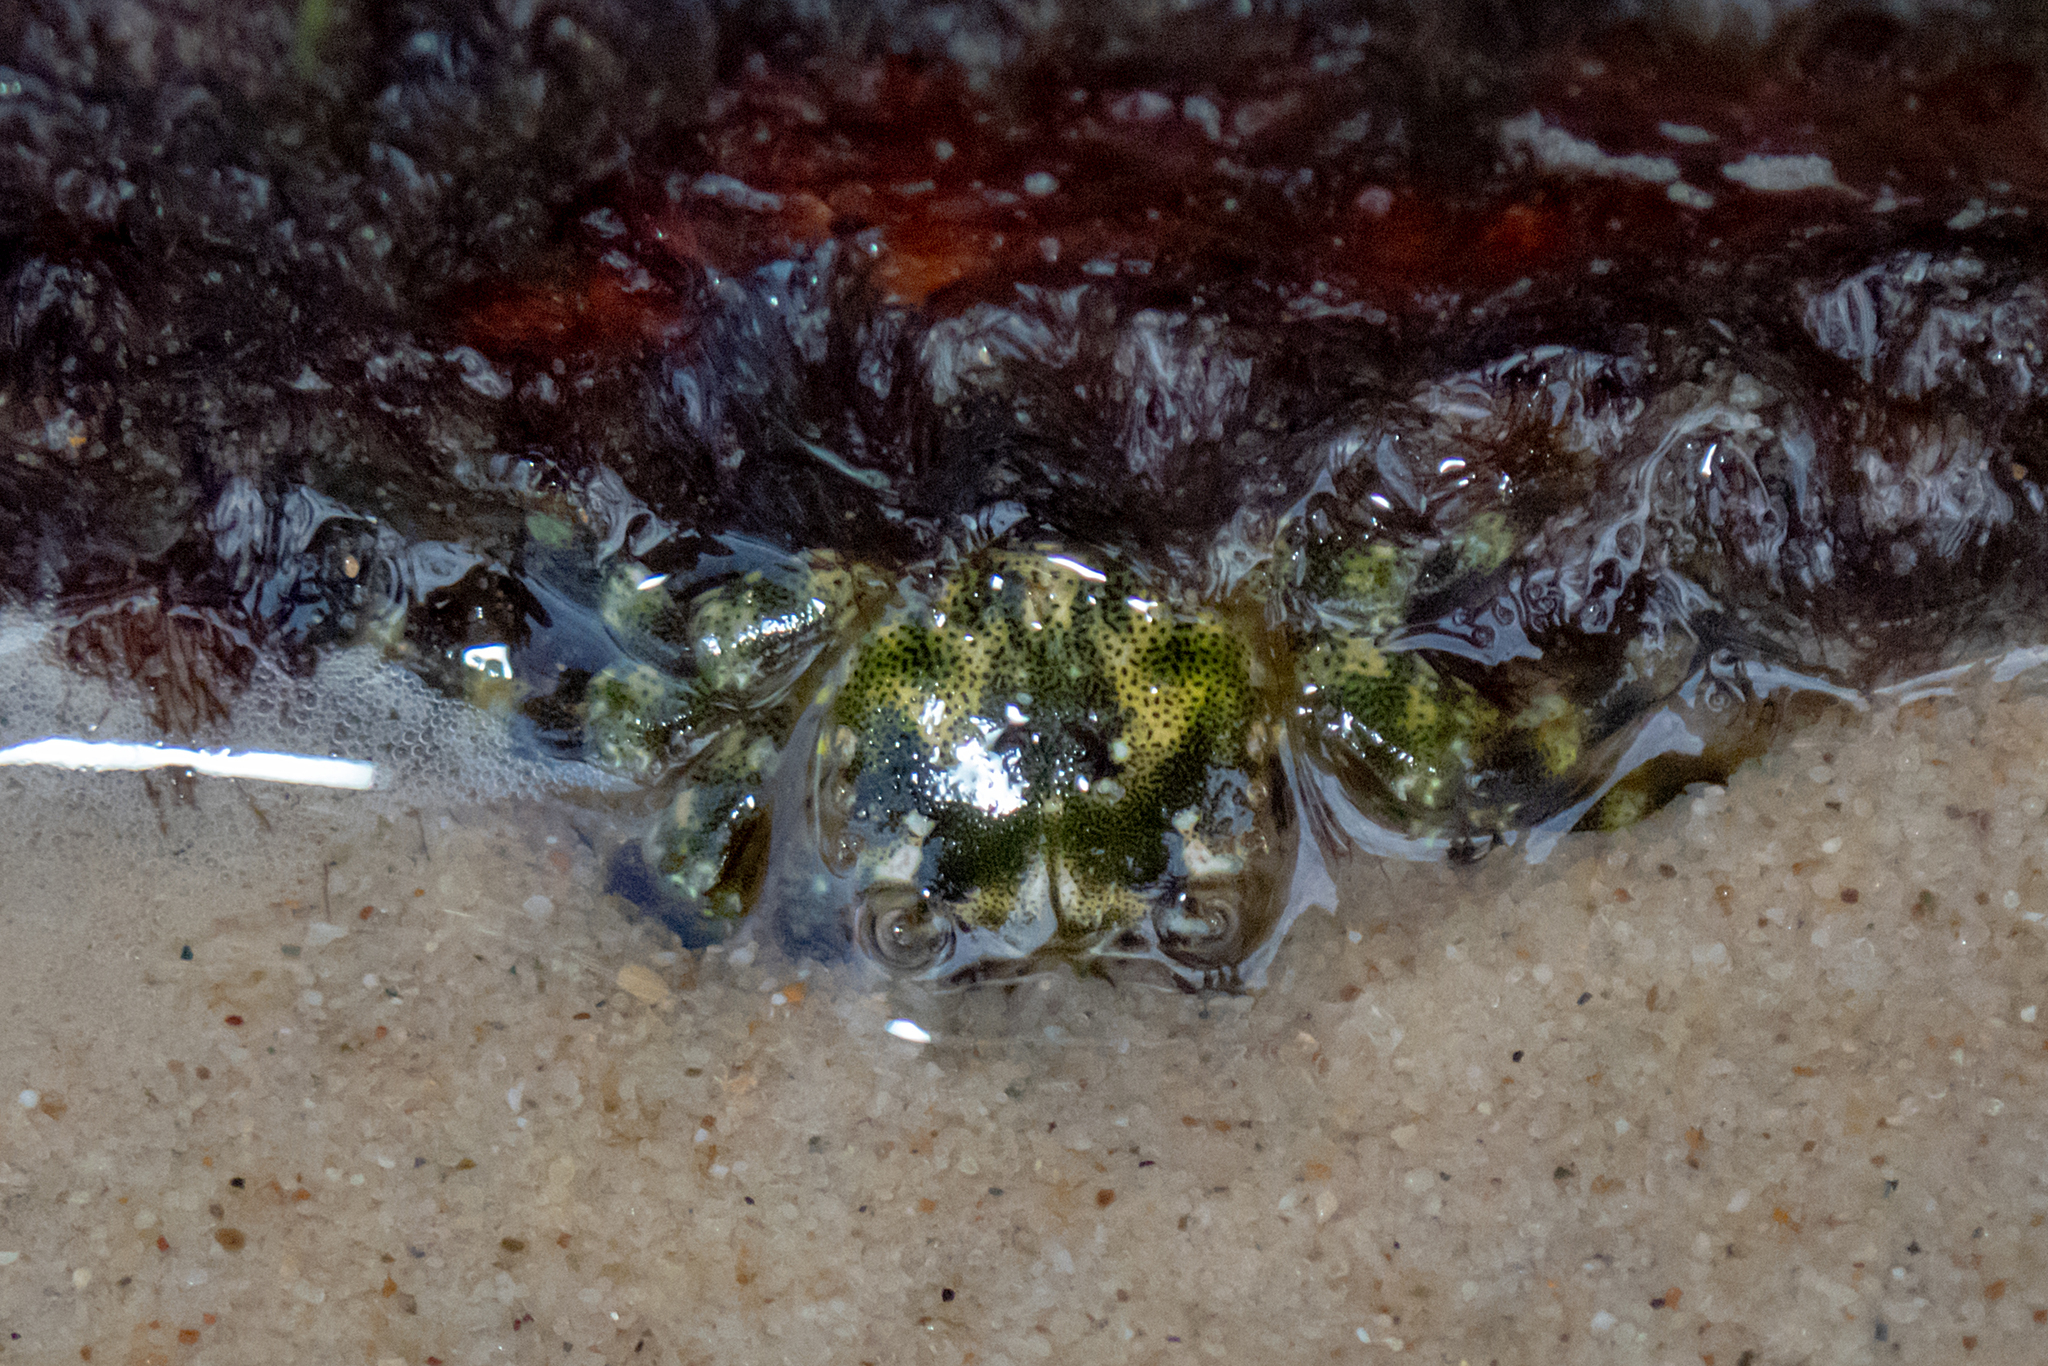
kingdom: Animalia
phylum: Arthropoda
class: Malacostraca
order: Decapoda
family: Plagusiidae
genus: Davusia
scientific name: Davusia glabra
